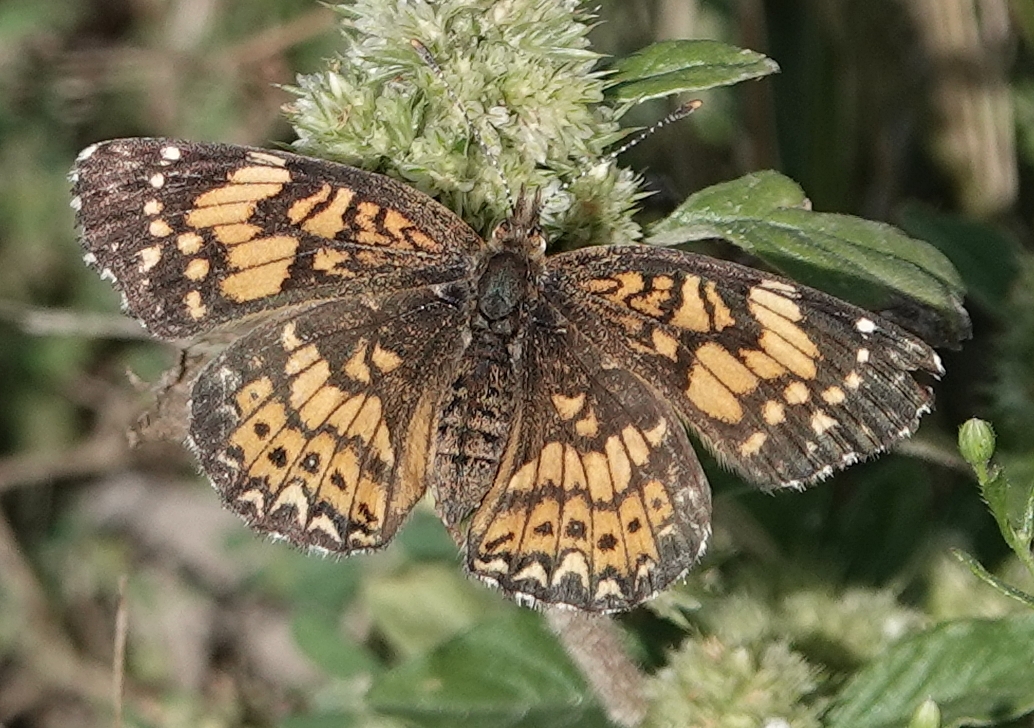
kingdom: Animalia
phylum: Arthropoda
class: Insecta
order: Lepidoptera
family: Nymphalidae
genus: Chlosyne
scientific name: Chlosyne gorgone
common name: Gorgone checkerspot
